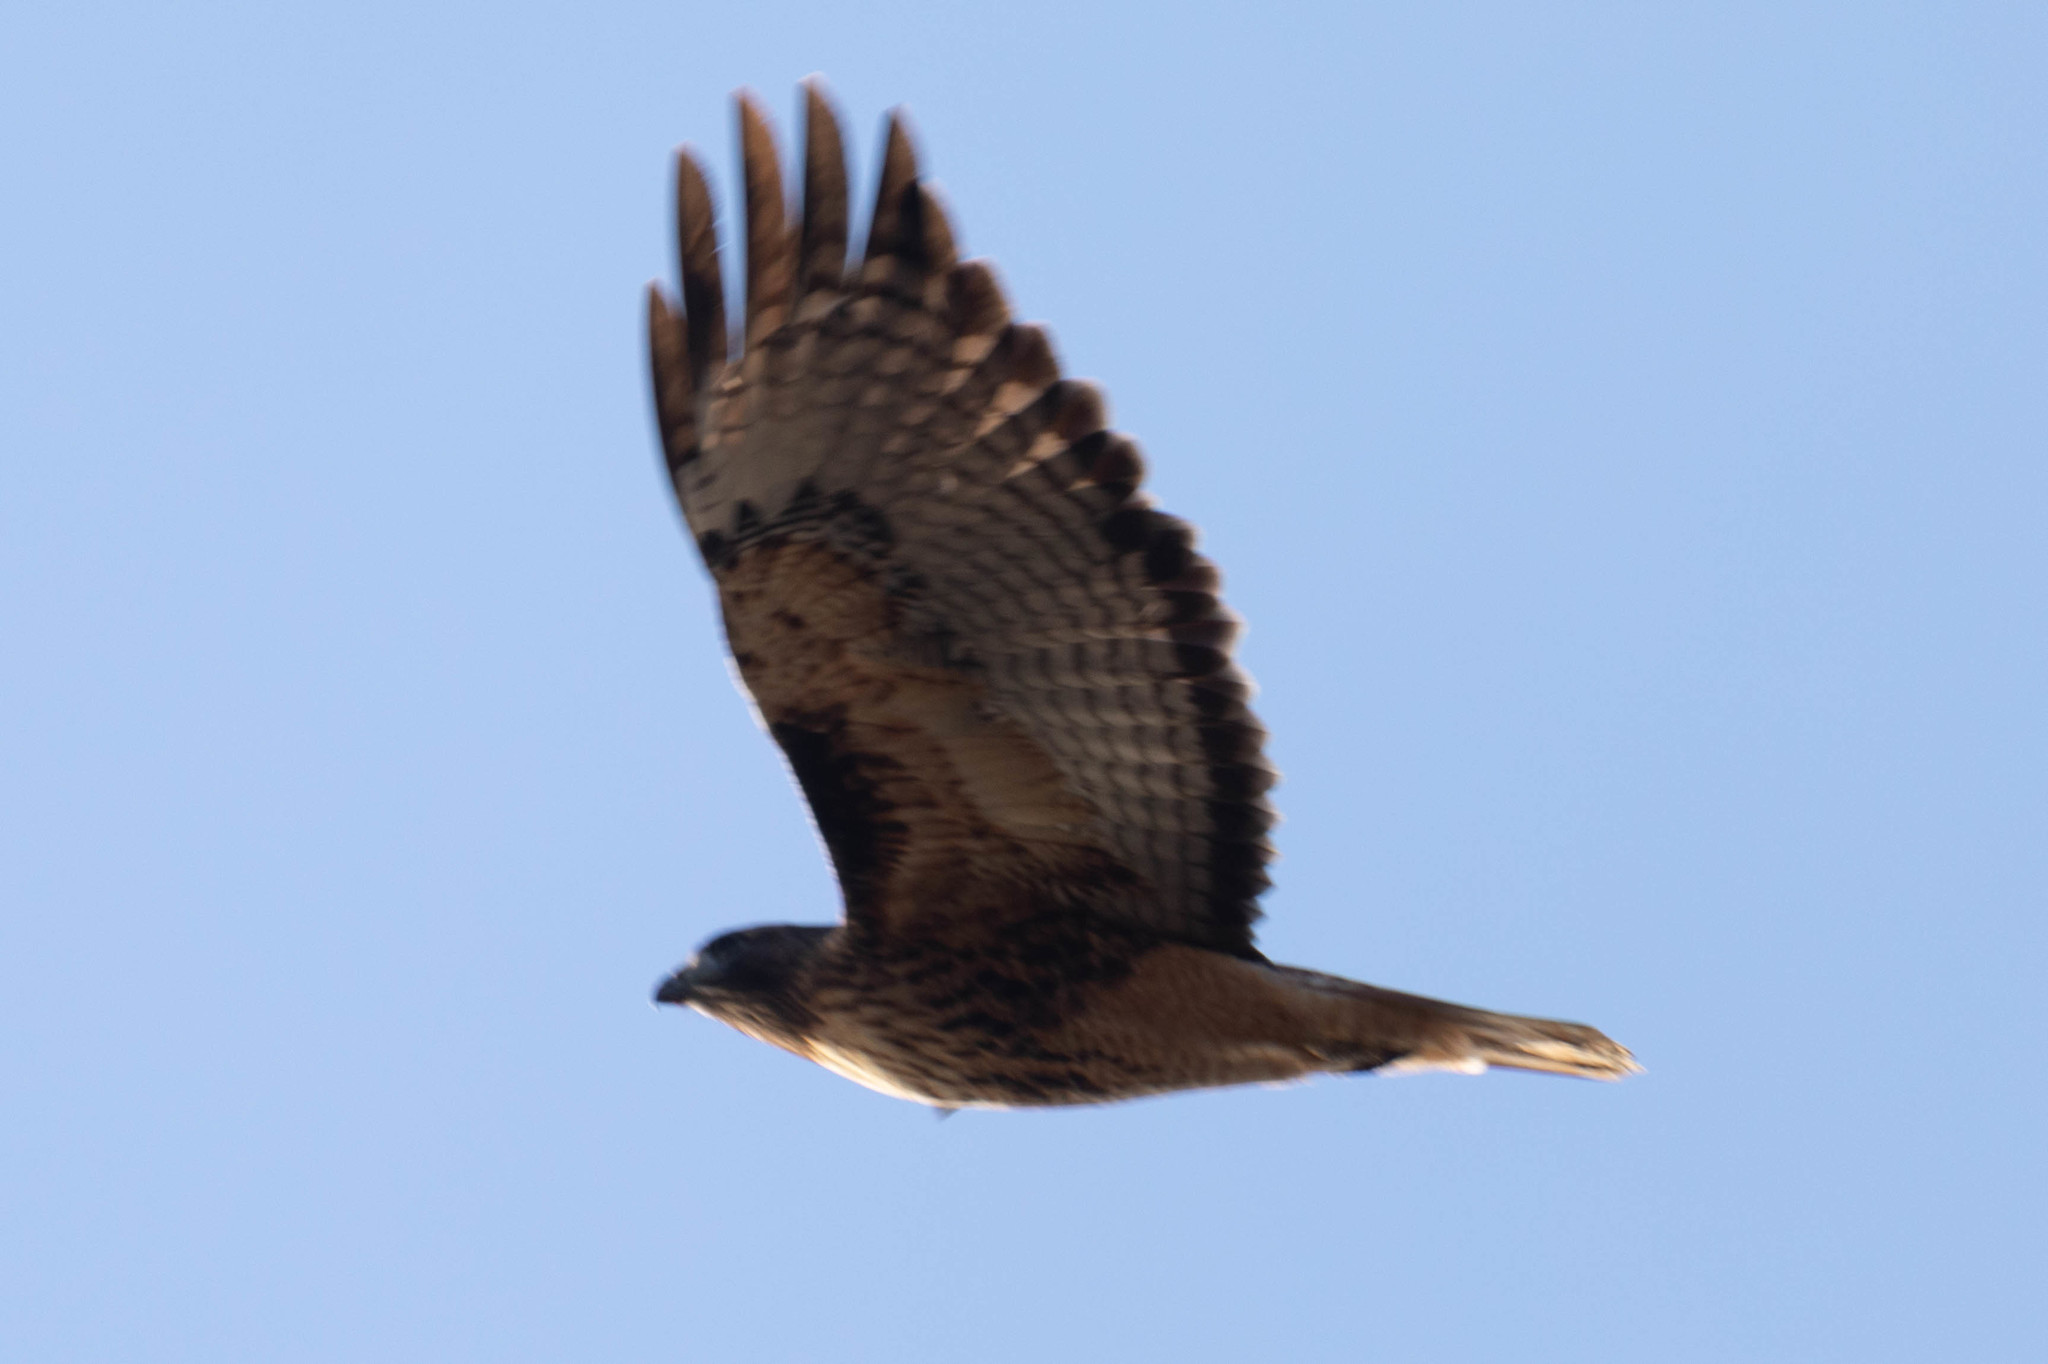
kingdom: Animalia
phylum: Chordata
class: Aves
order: Accipitriformes
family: Accipitridae
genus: Buteo
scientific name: Buteo jamaicensis
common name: Red-tailed hawk
